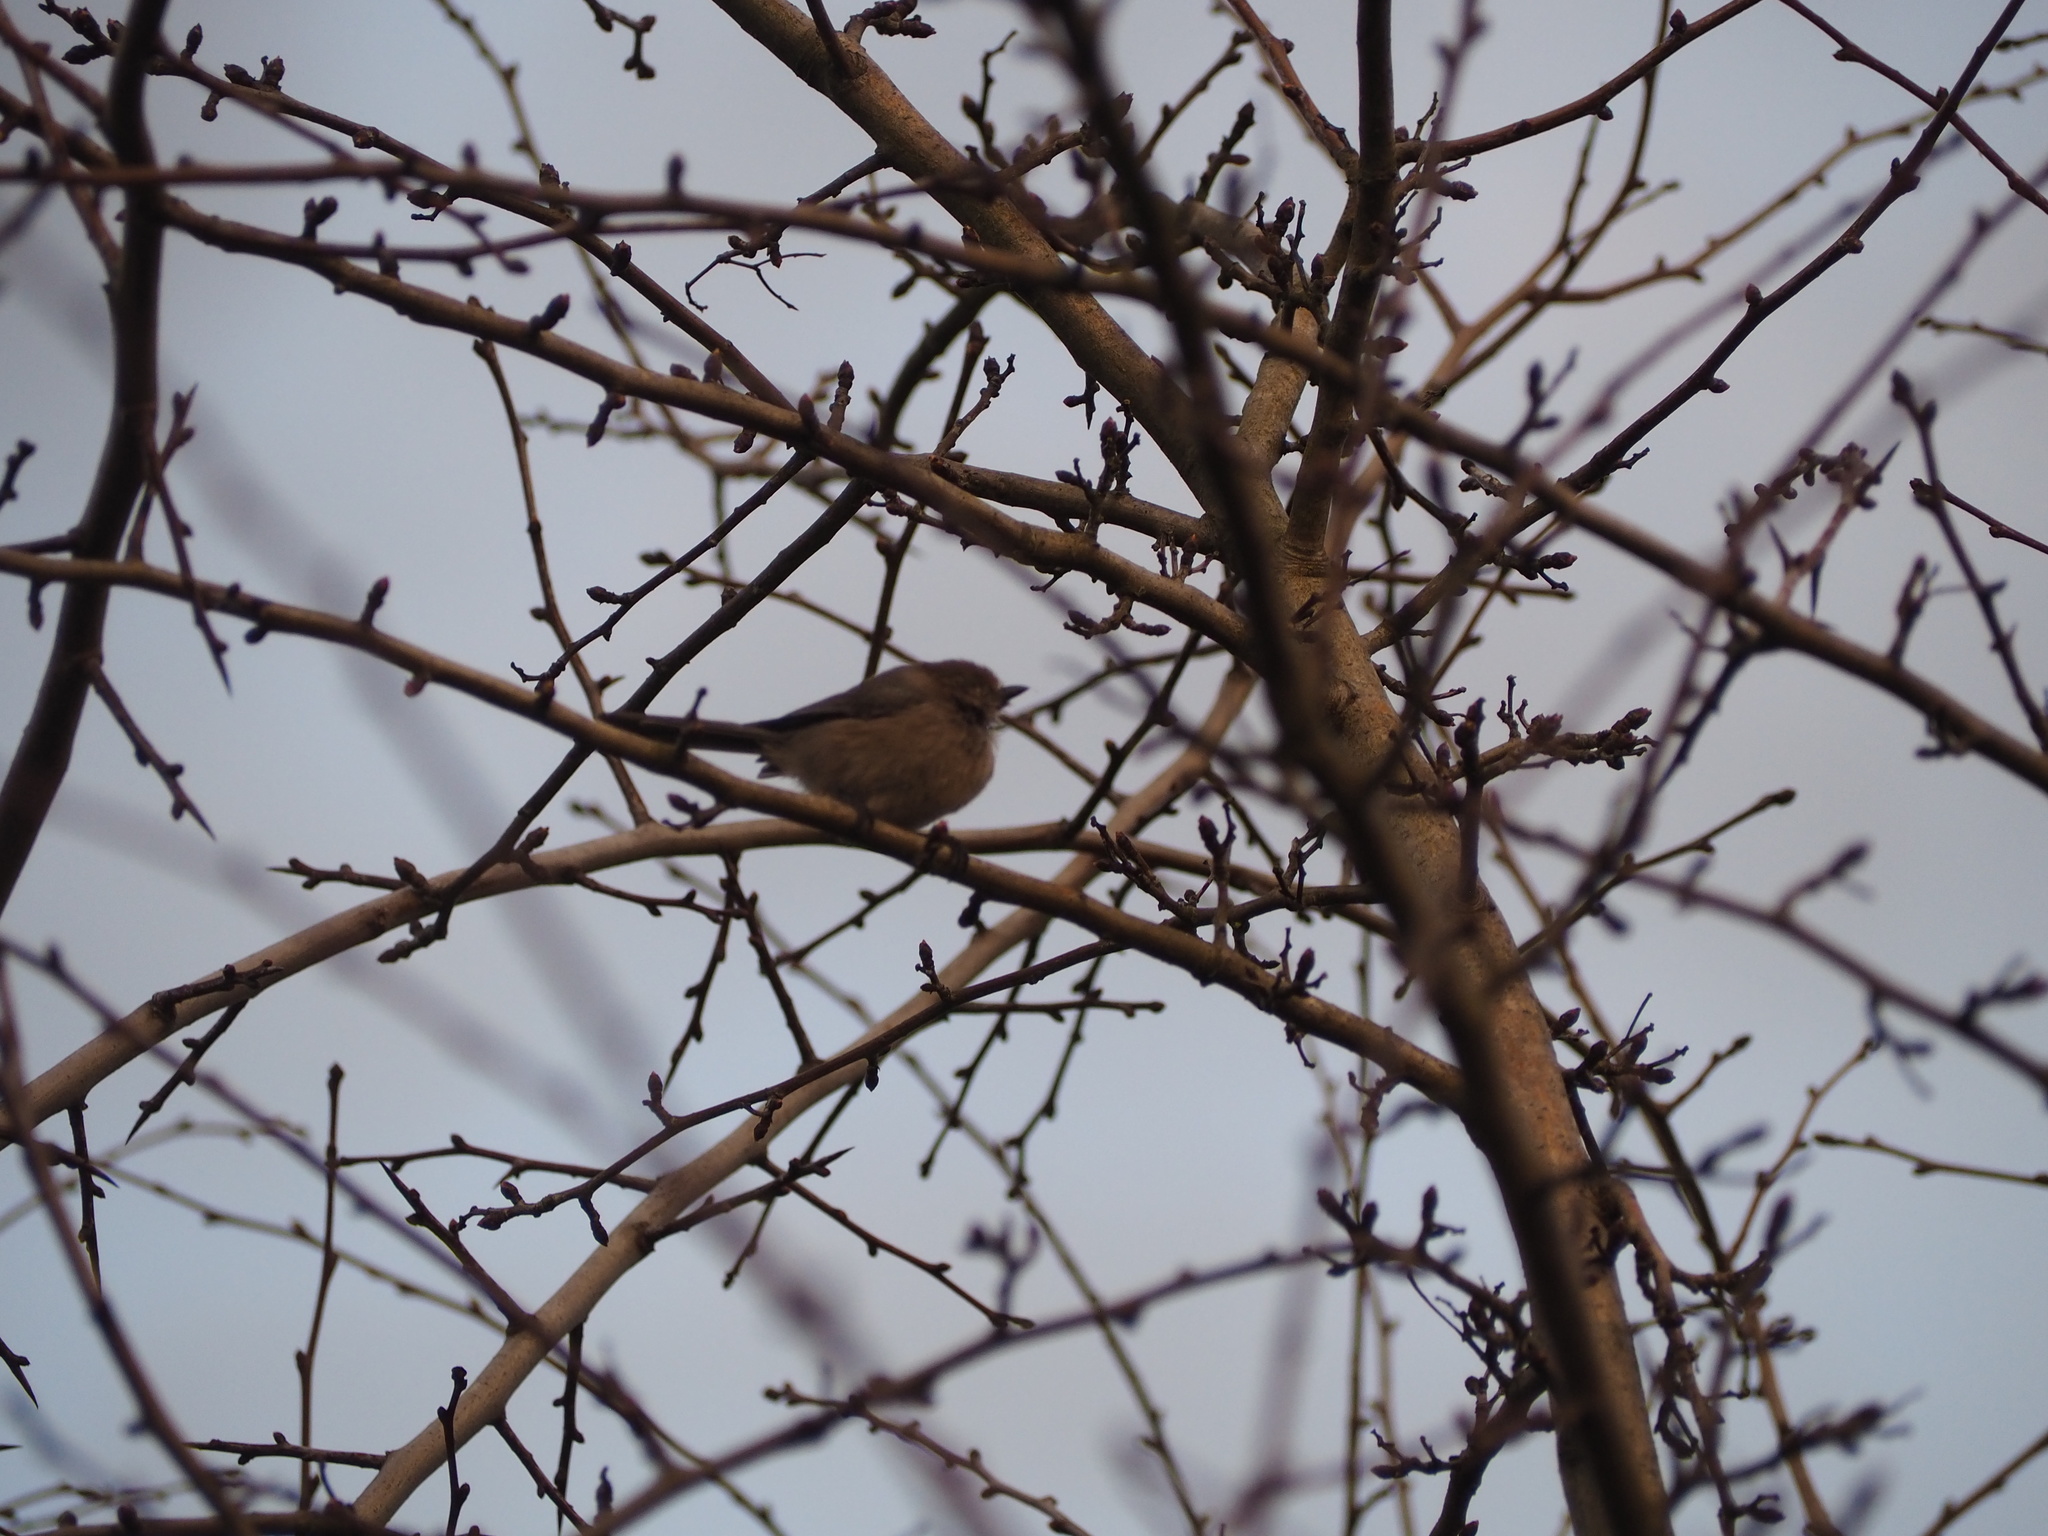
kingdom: Animalia
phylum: Chordata
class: Aves
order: Passeriformes
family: Aegithalidae
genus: Psaltriparus
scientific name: Psaltriparus minimus
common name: American bushtit
